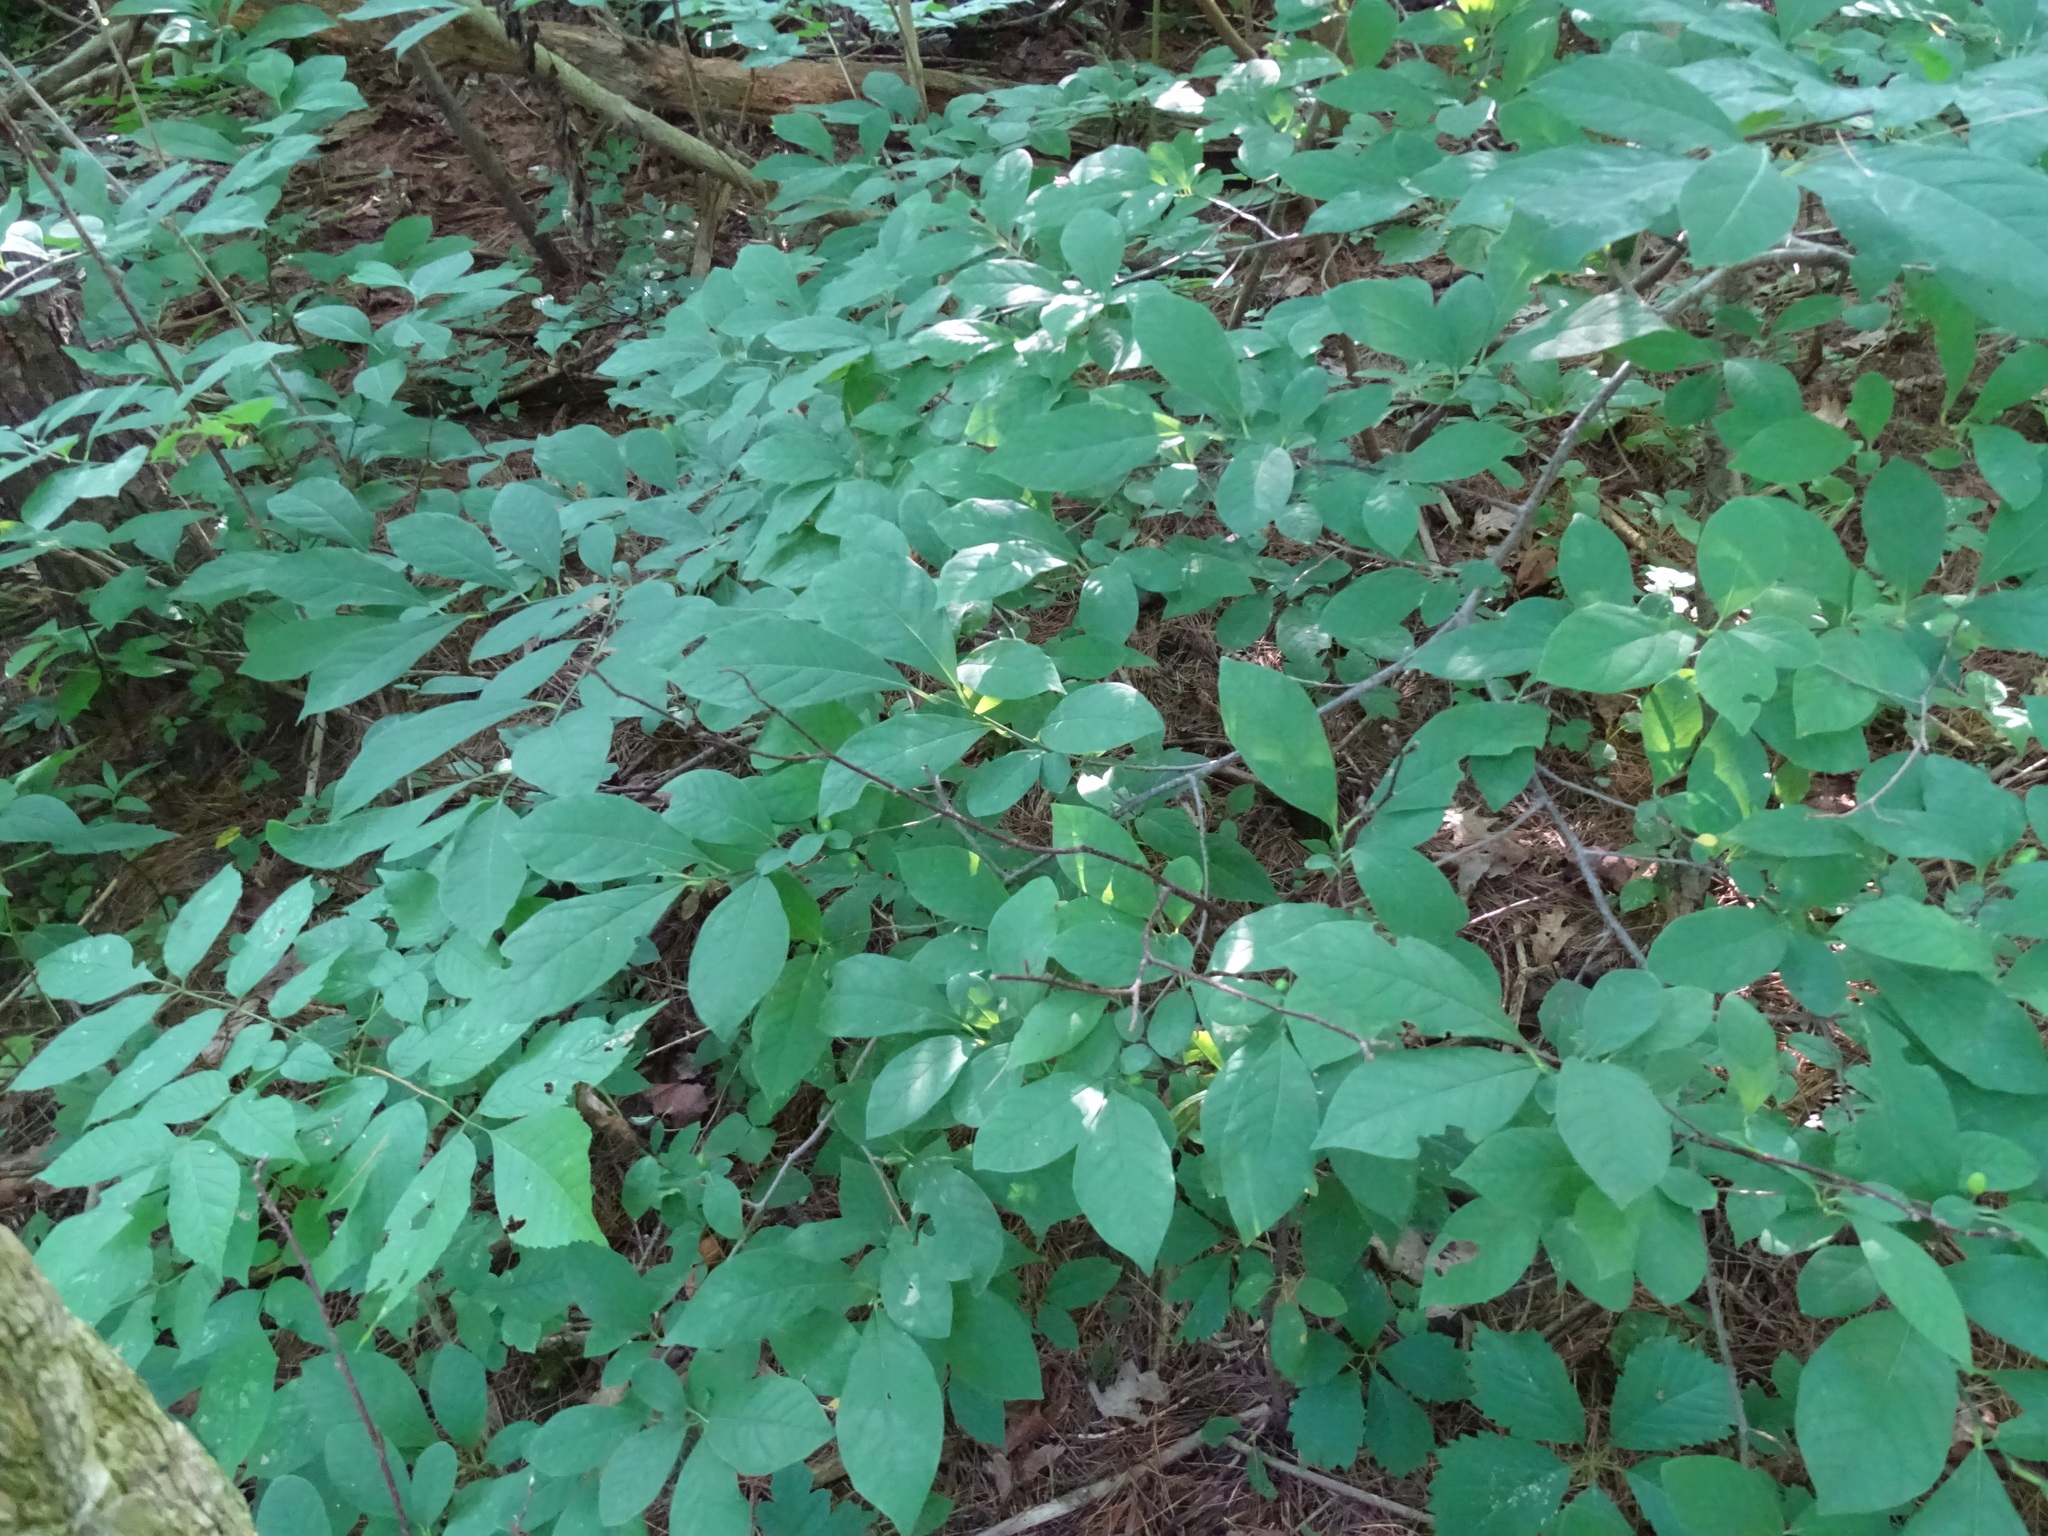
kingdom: Plantae
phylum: Tracheophyta
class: Magnoliopsida
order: Laurales
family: Lauraceae
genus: Lindera
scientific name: Lindera benzoin
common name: Spicebush
